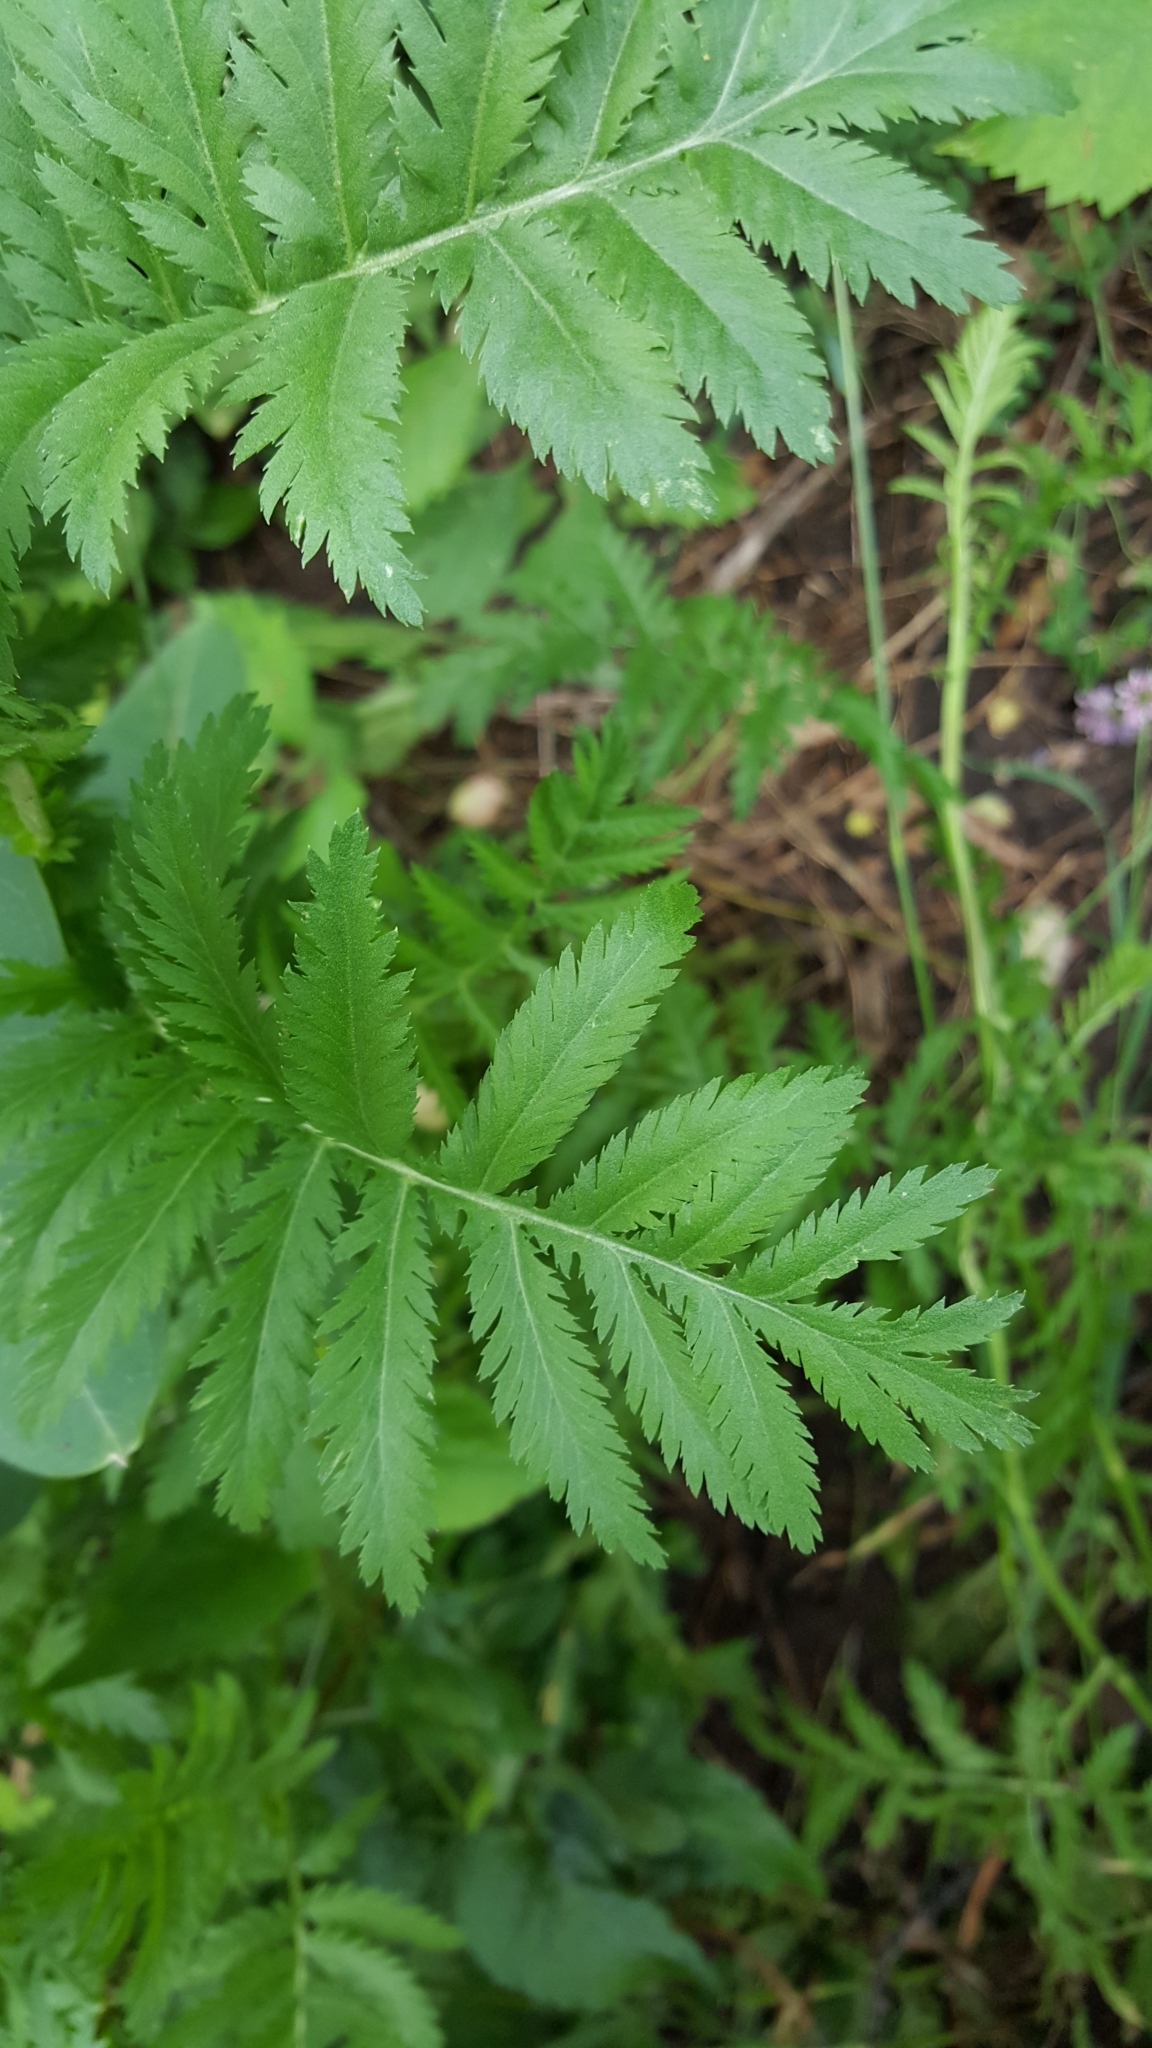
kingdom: Plantae
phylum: Tracheophyta
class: Magnoliopsida
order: Asterales
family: Asteraceae
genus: Tanacetum
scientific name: Tanacetum vulgare
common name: Common tansy
